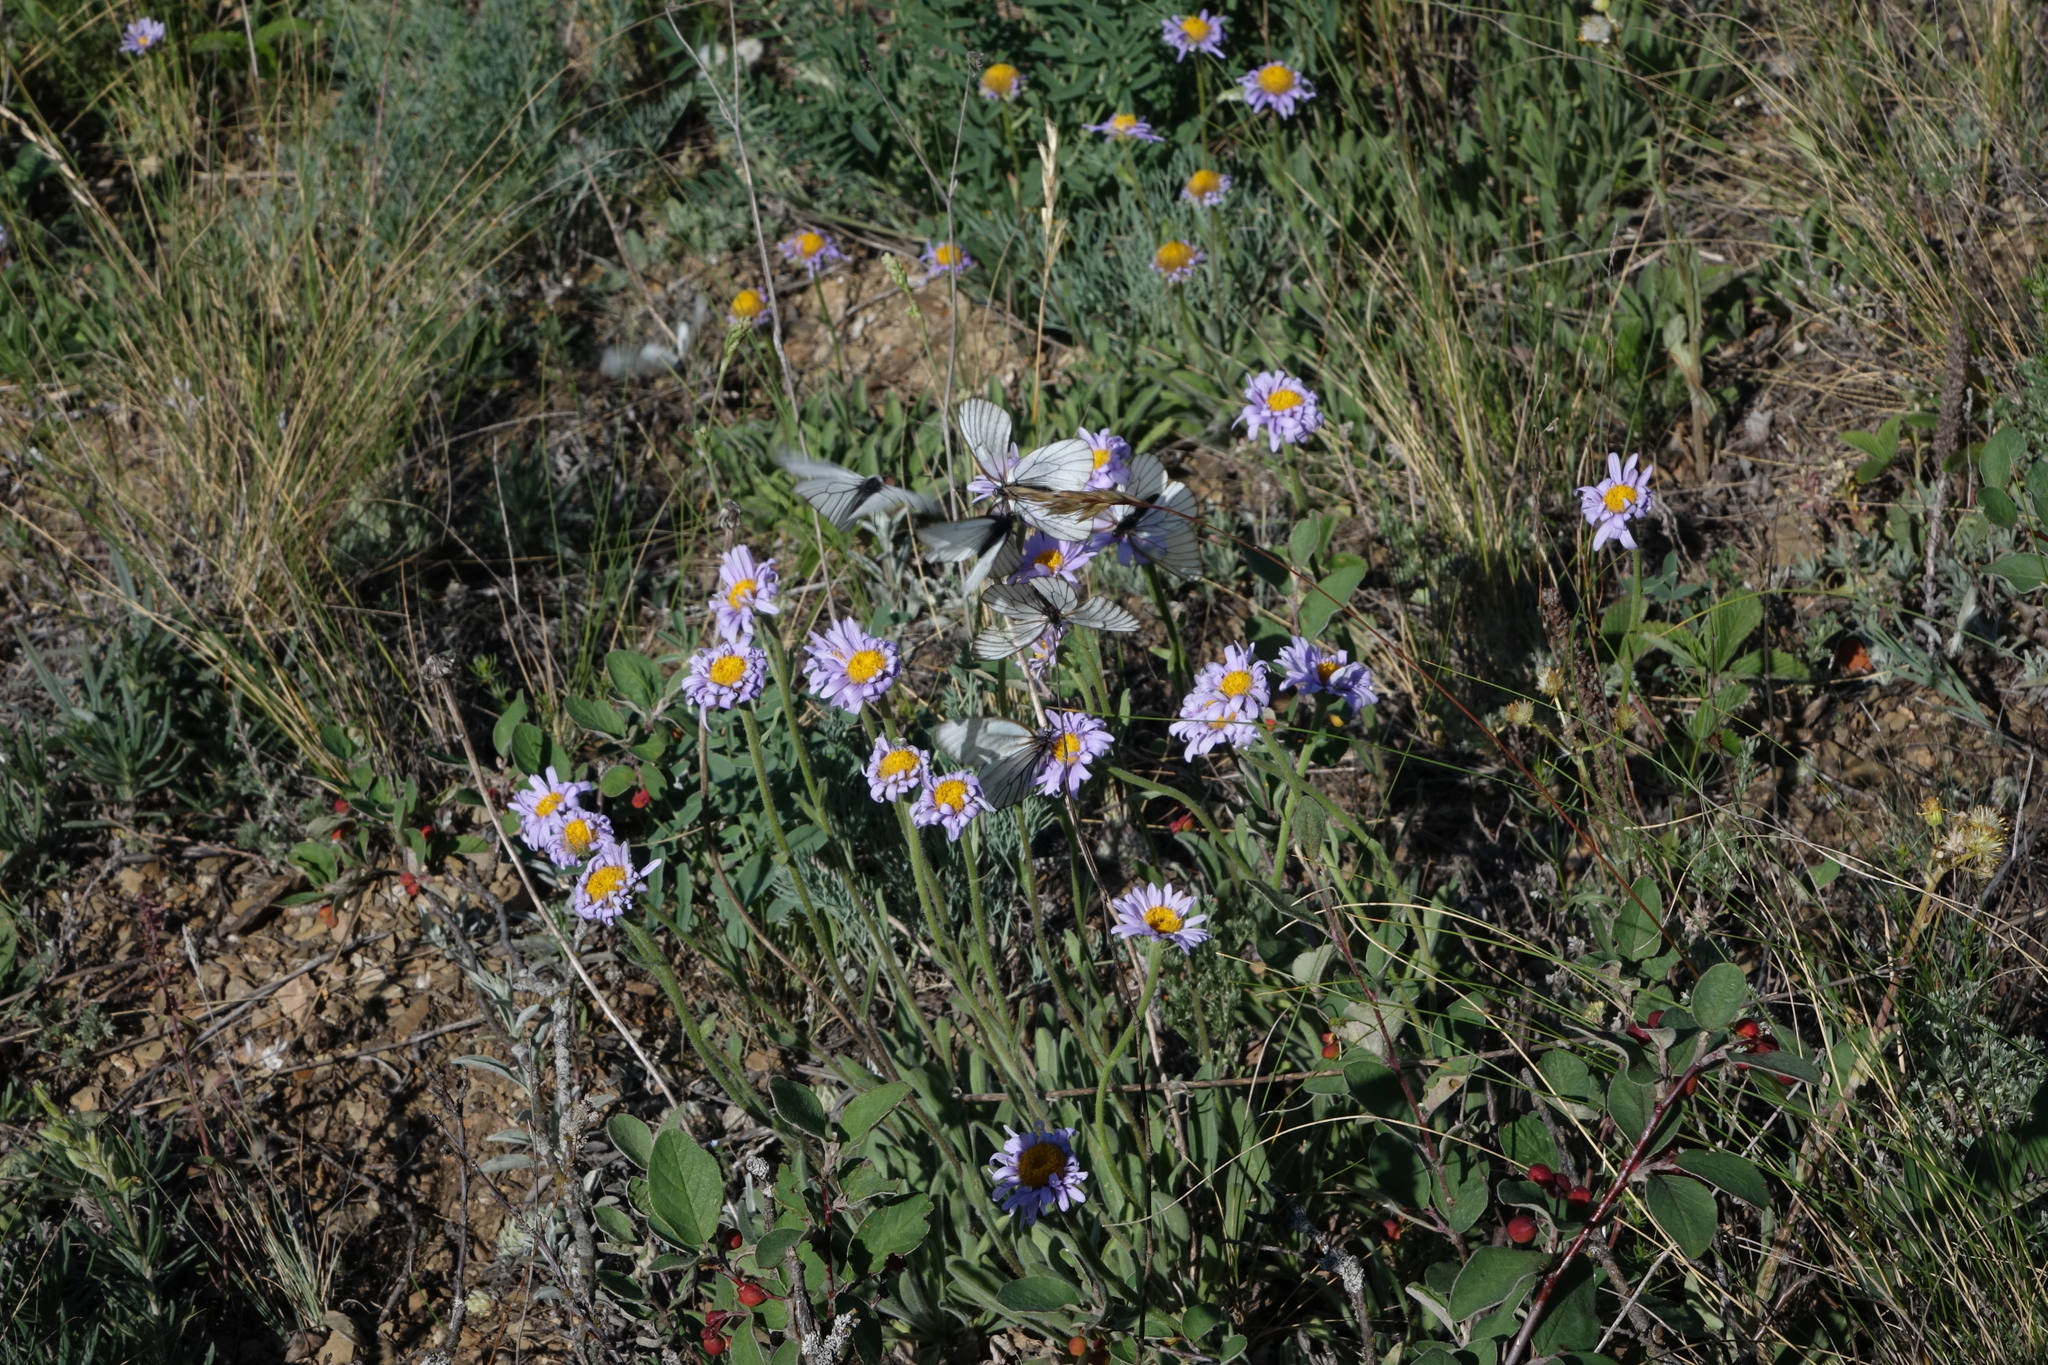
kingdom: Plantae
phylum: Tracheophyta
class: Magnoliopsida
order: Asterales
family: Asteraceae
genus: Aster
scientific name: Aster alpinus
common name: Alpine aster
